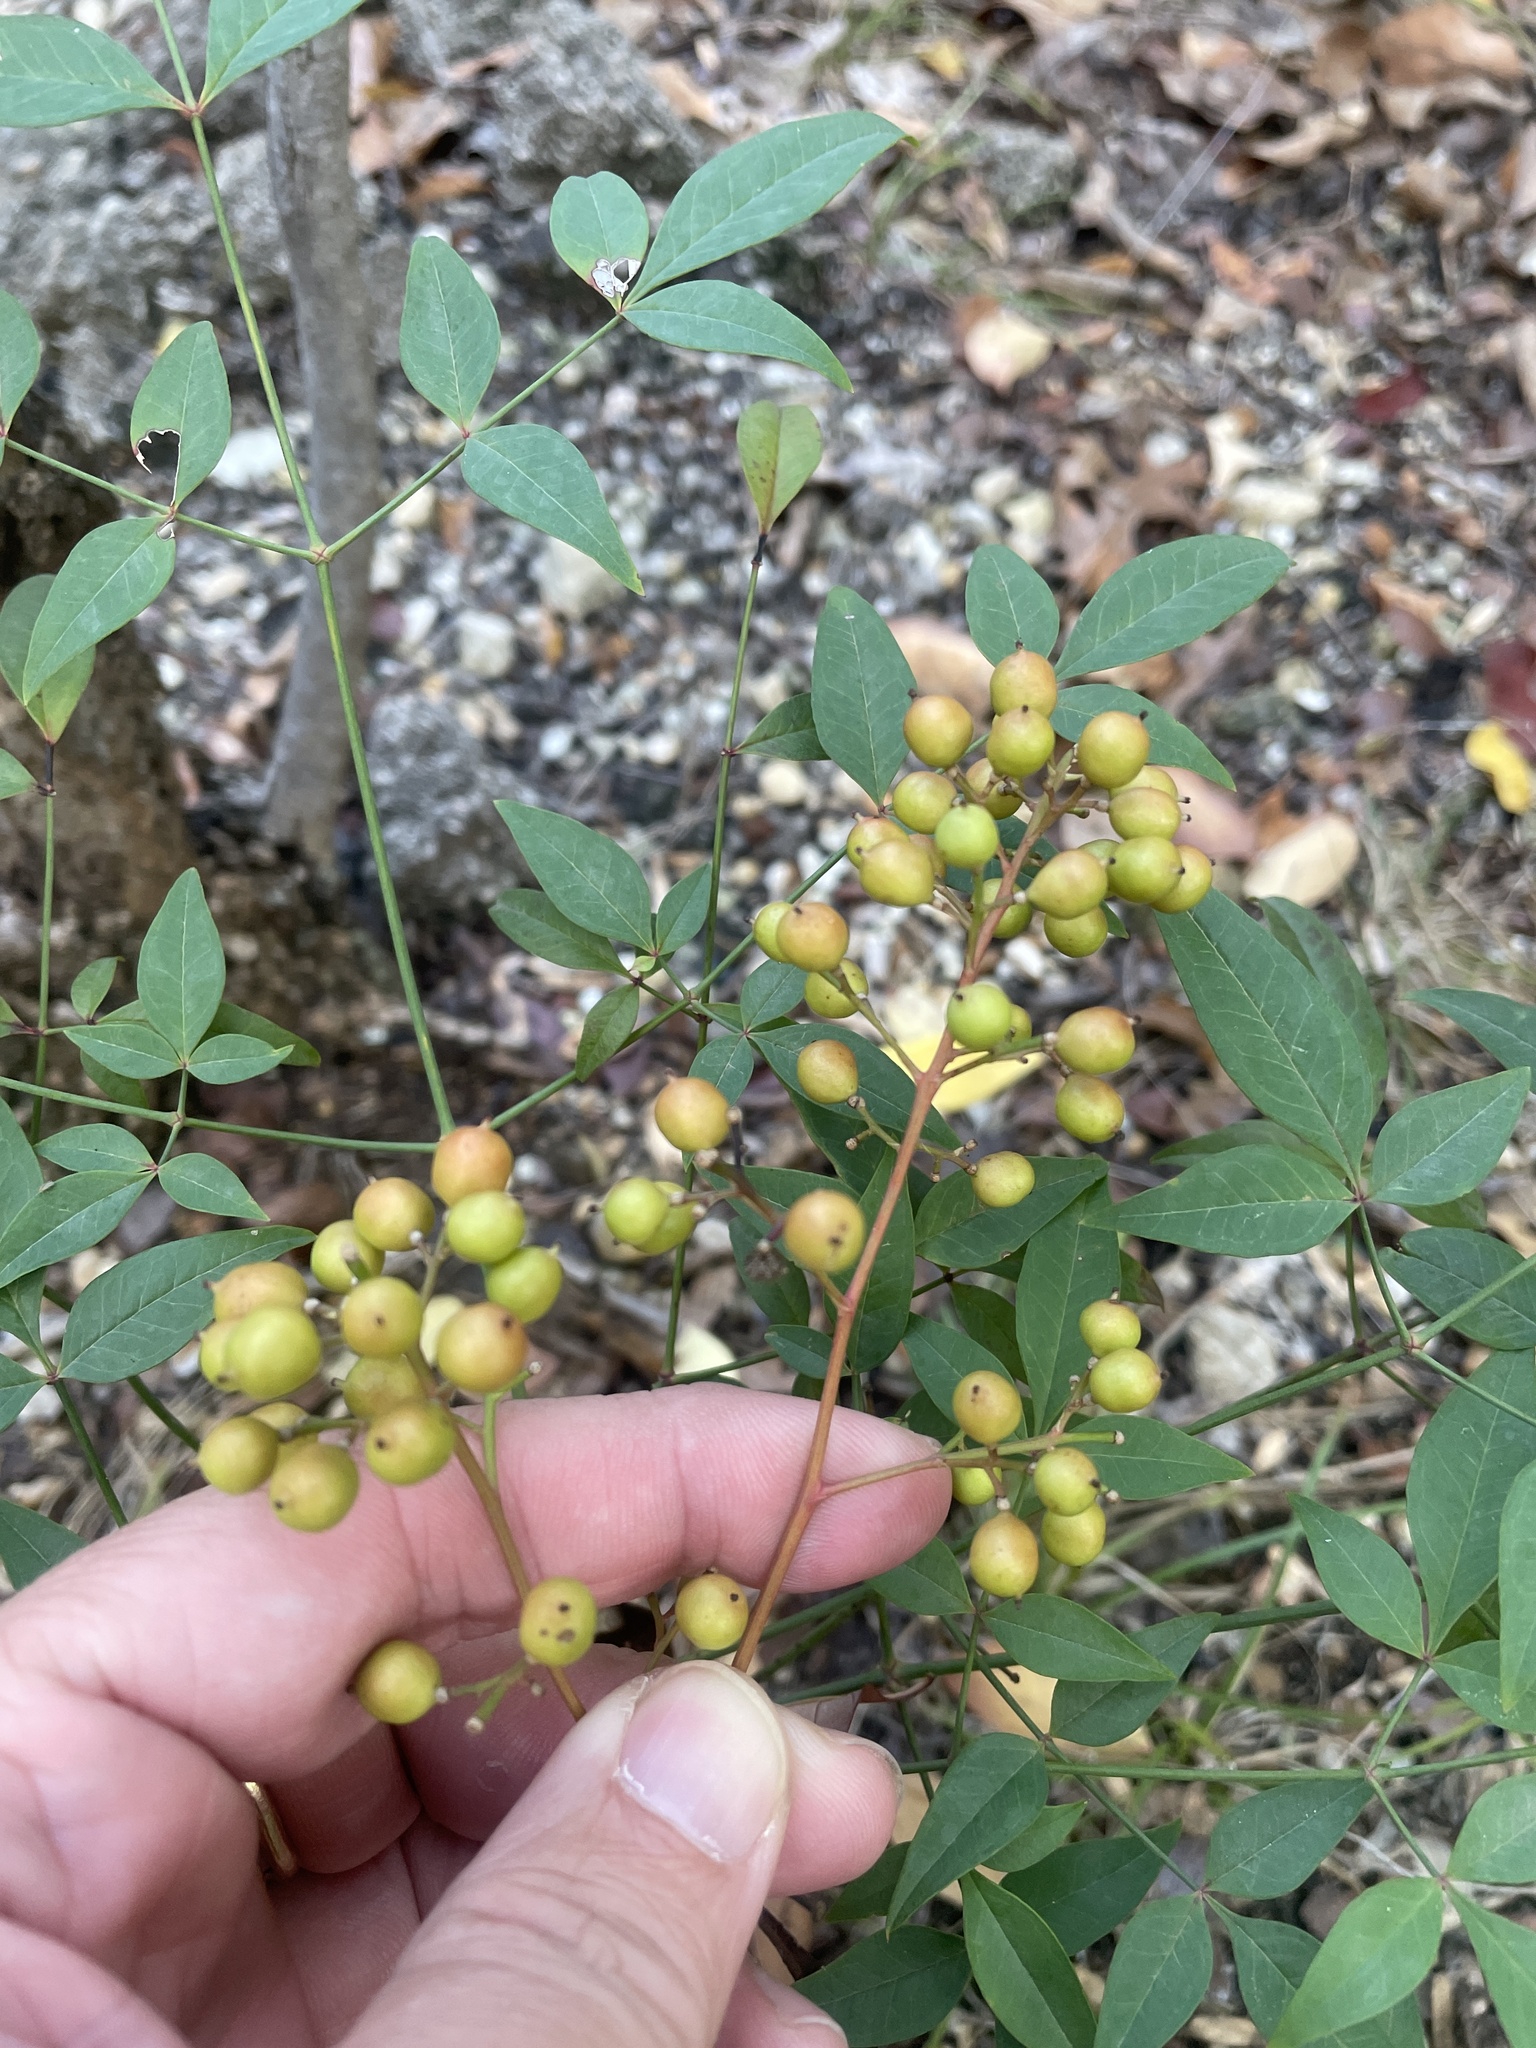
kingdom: Plantae
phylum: Tracheophyta
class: Magnoliopsida
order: Ranunculales
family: Berberidaceae
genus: Nandina
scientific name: Nandina domestica
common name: Sacred bamboo
